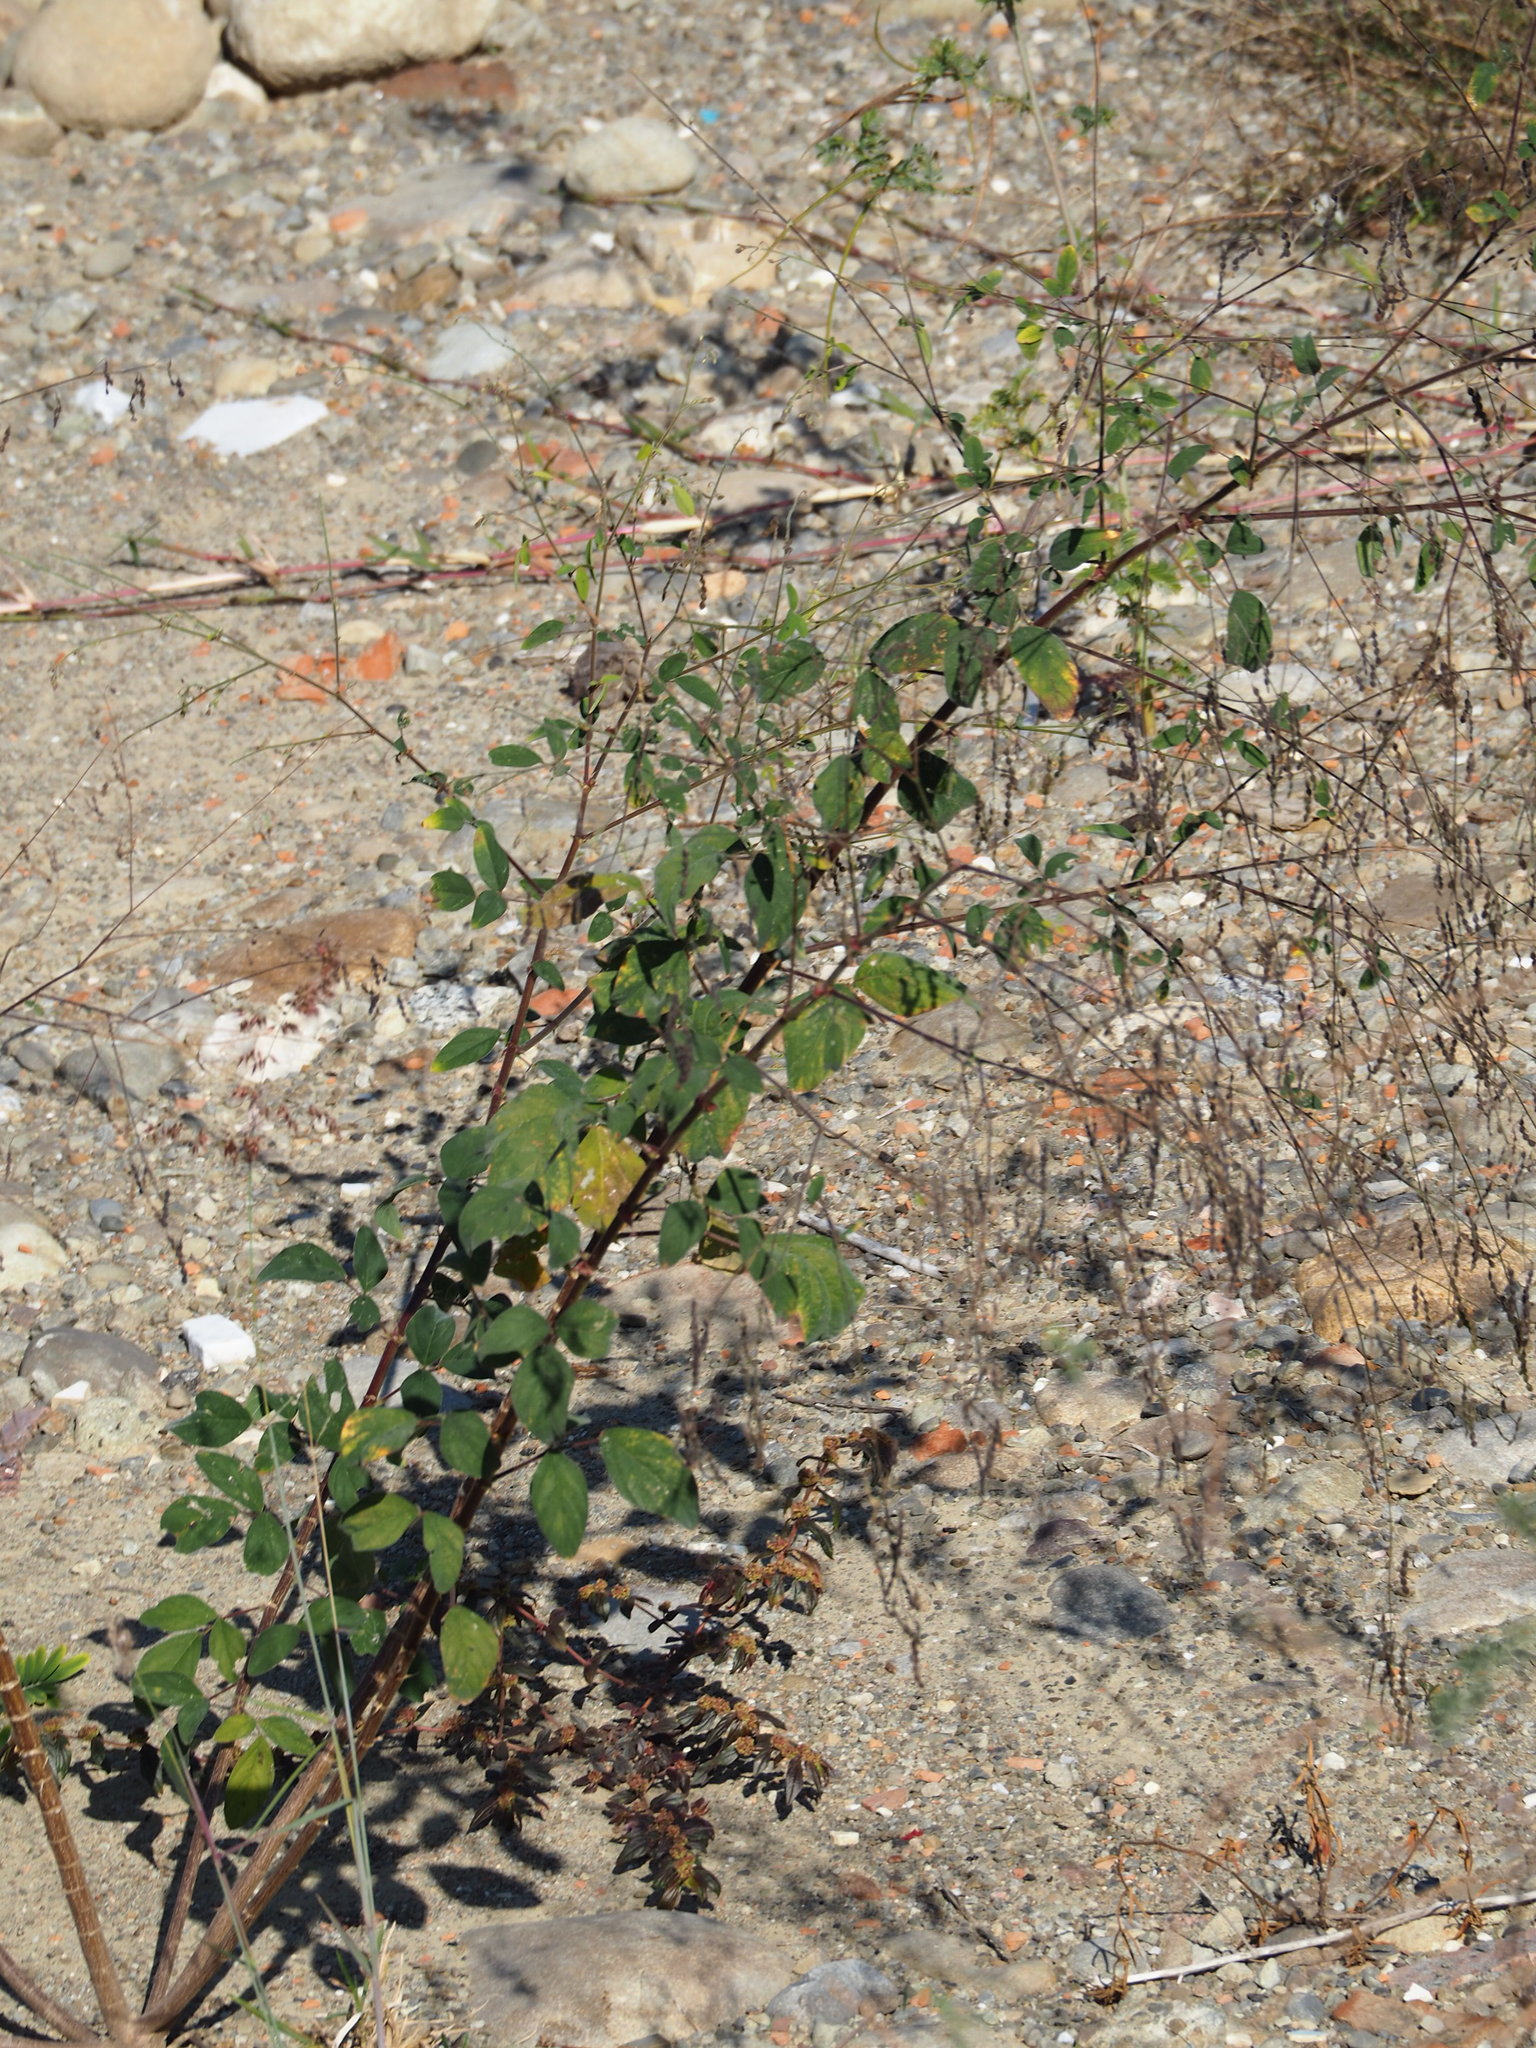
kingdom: Plantae
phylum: Tracheophyta
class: Magnoliopsida
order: Fabales
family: Fabaceae
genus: Desmodium
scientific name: Desmodium tortuosum
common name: Dixie ticktrefoil
